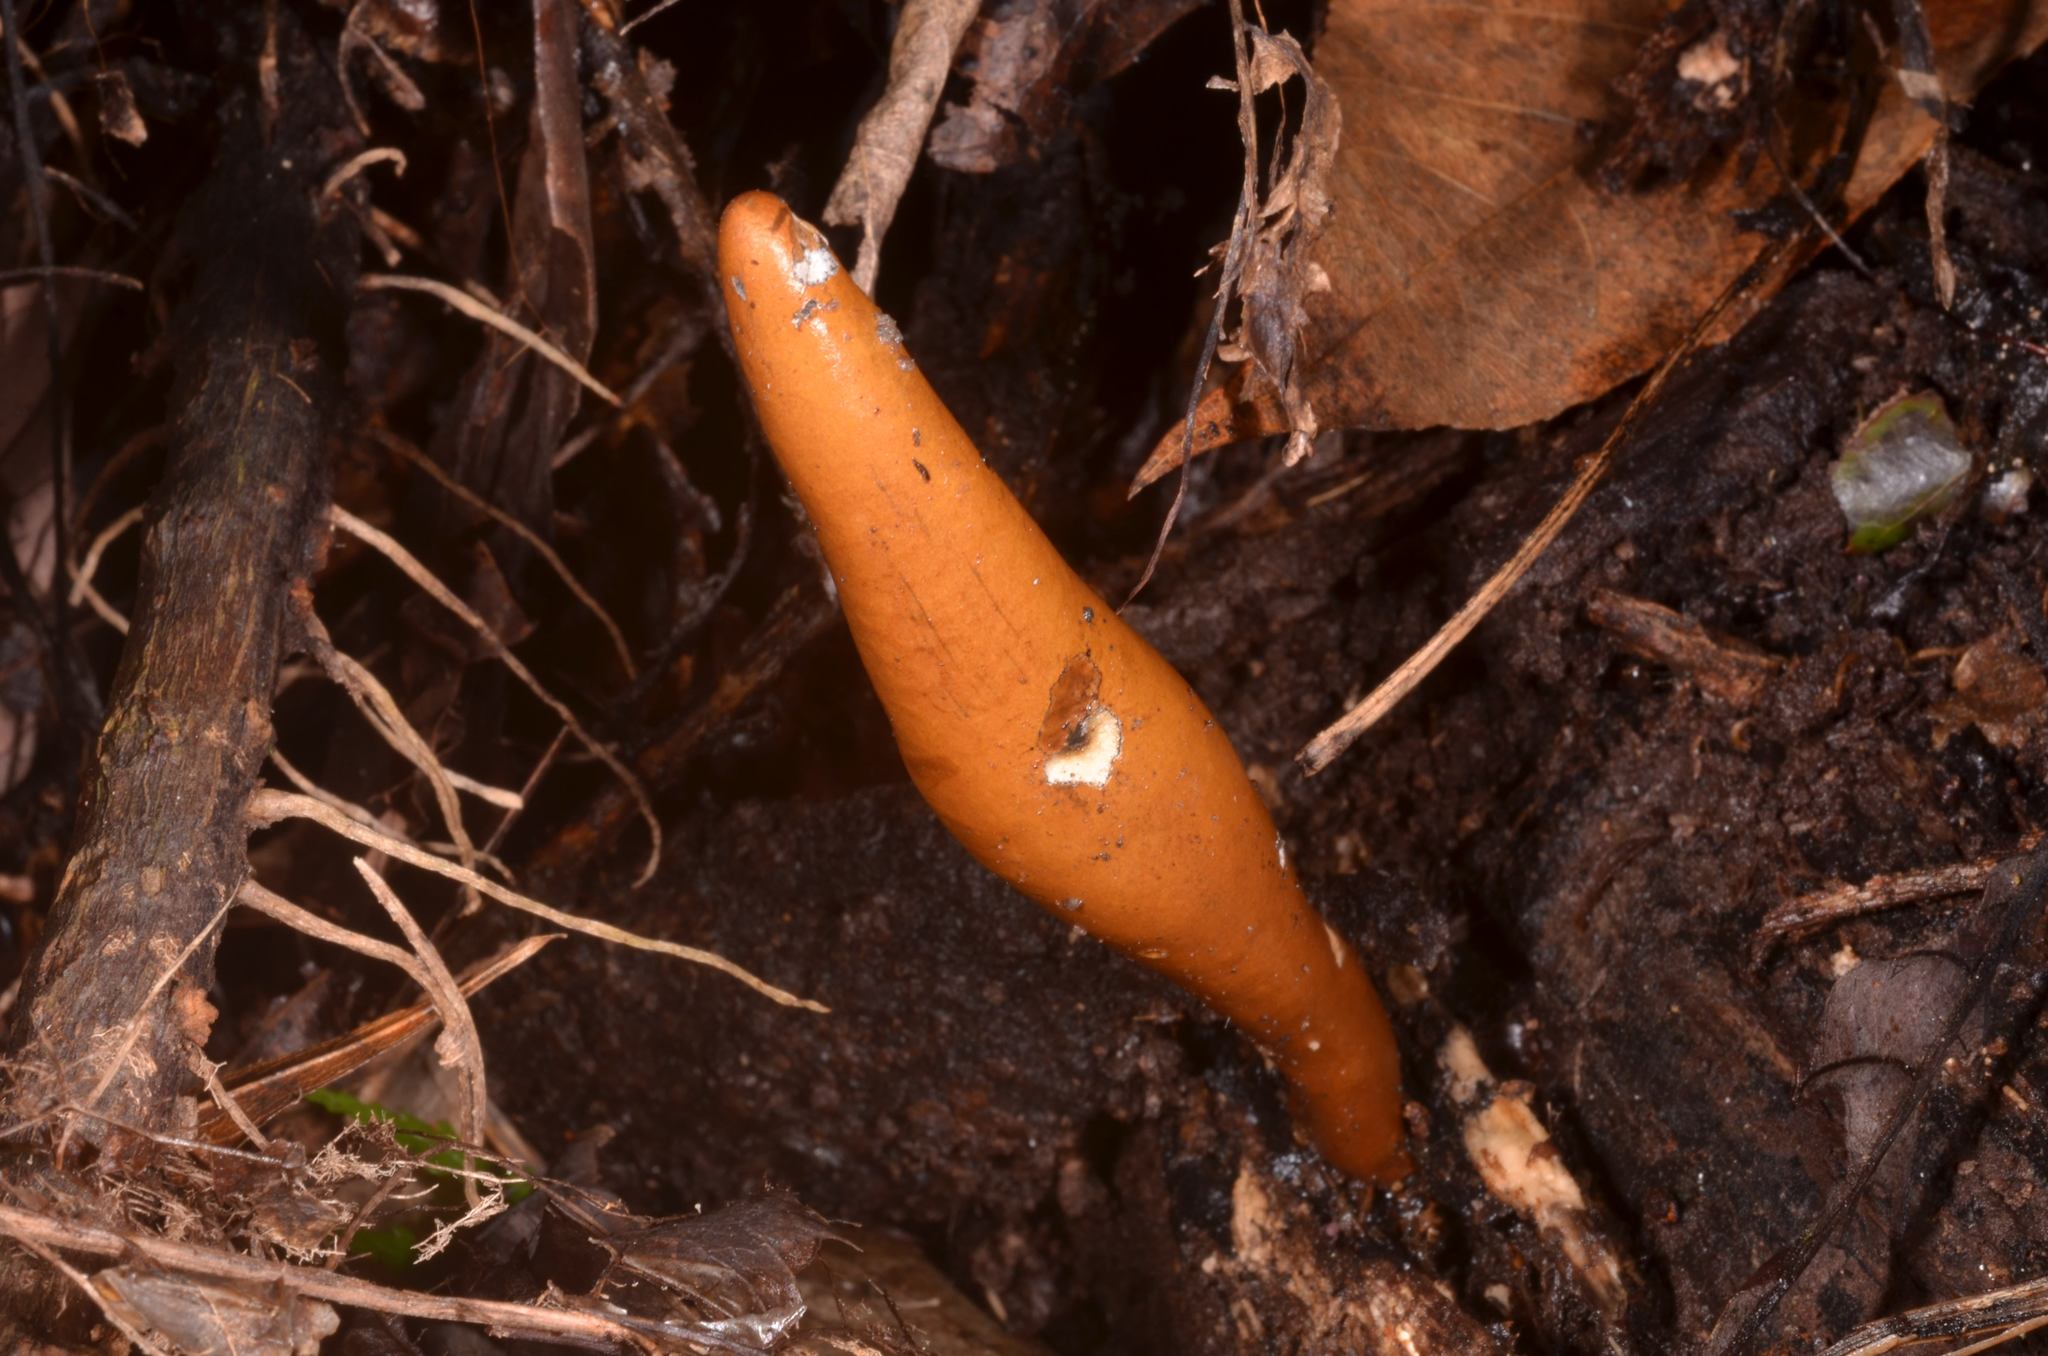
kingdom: Fungi
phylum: Ascomycota
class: Sordariomycetes
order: Xylariales
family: Xylariaceae
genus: Xylaria
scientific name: Xylaria telfairii
